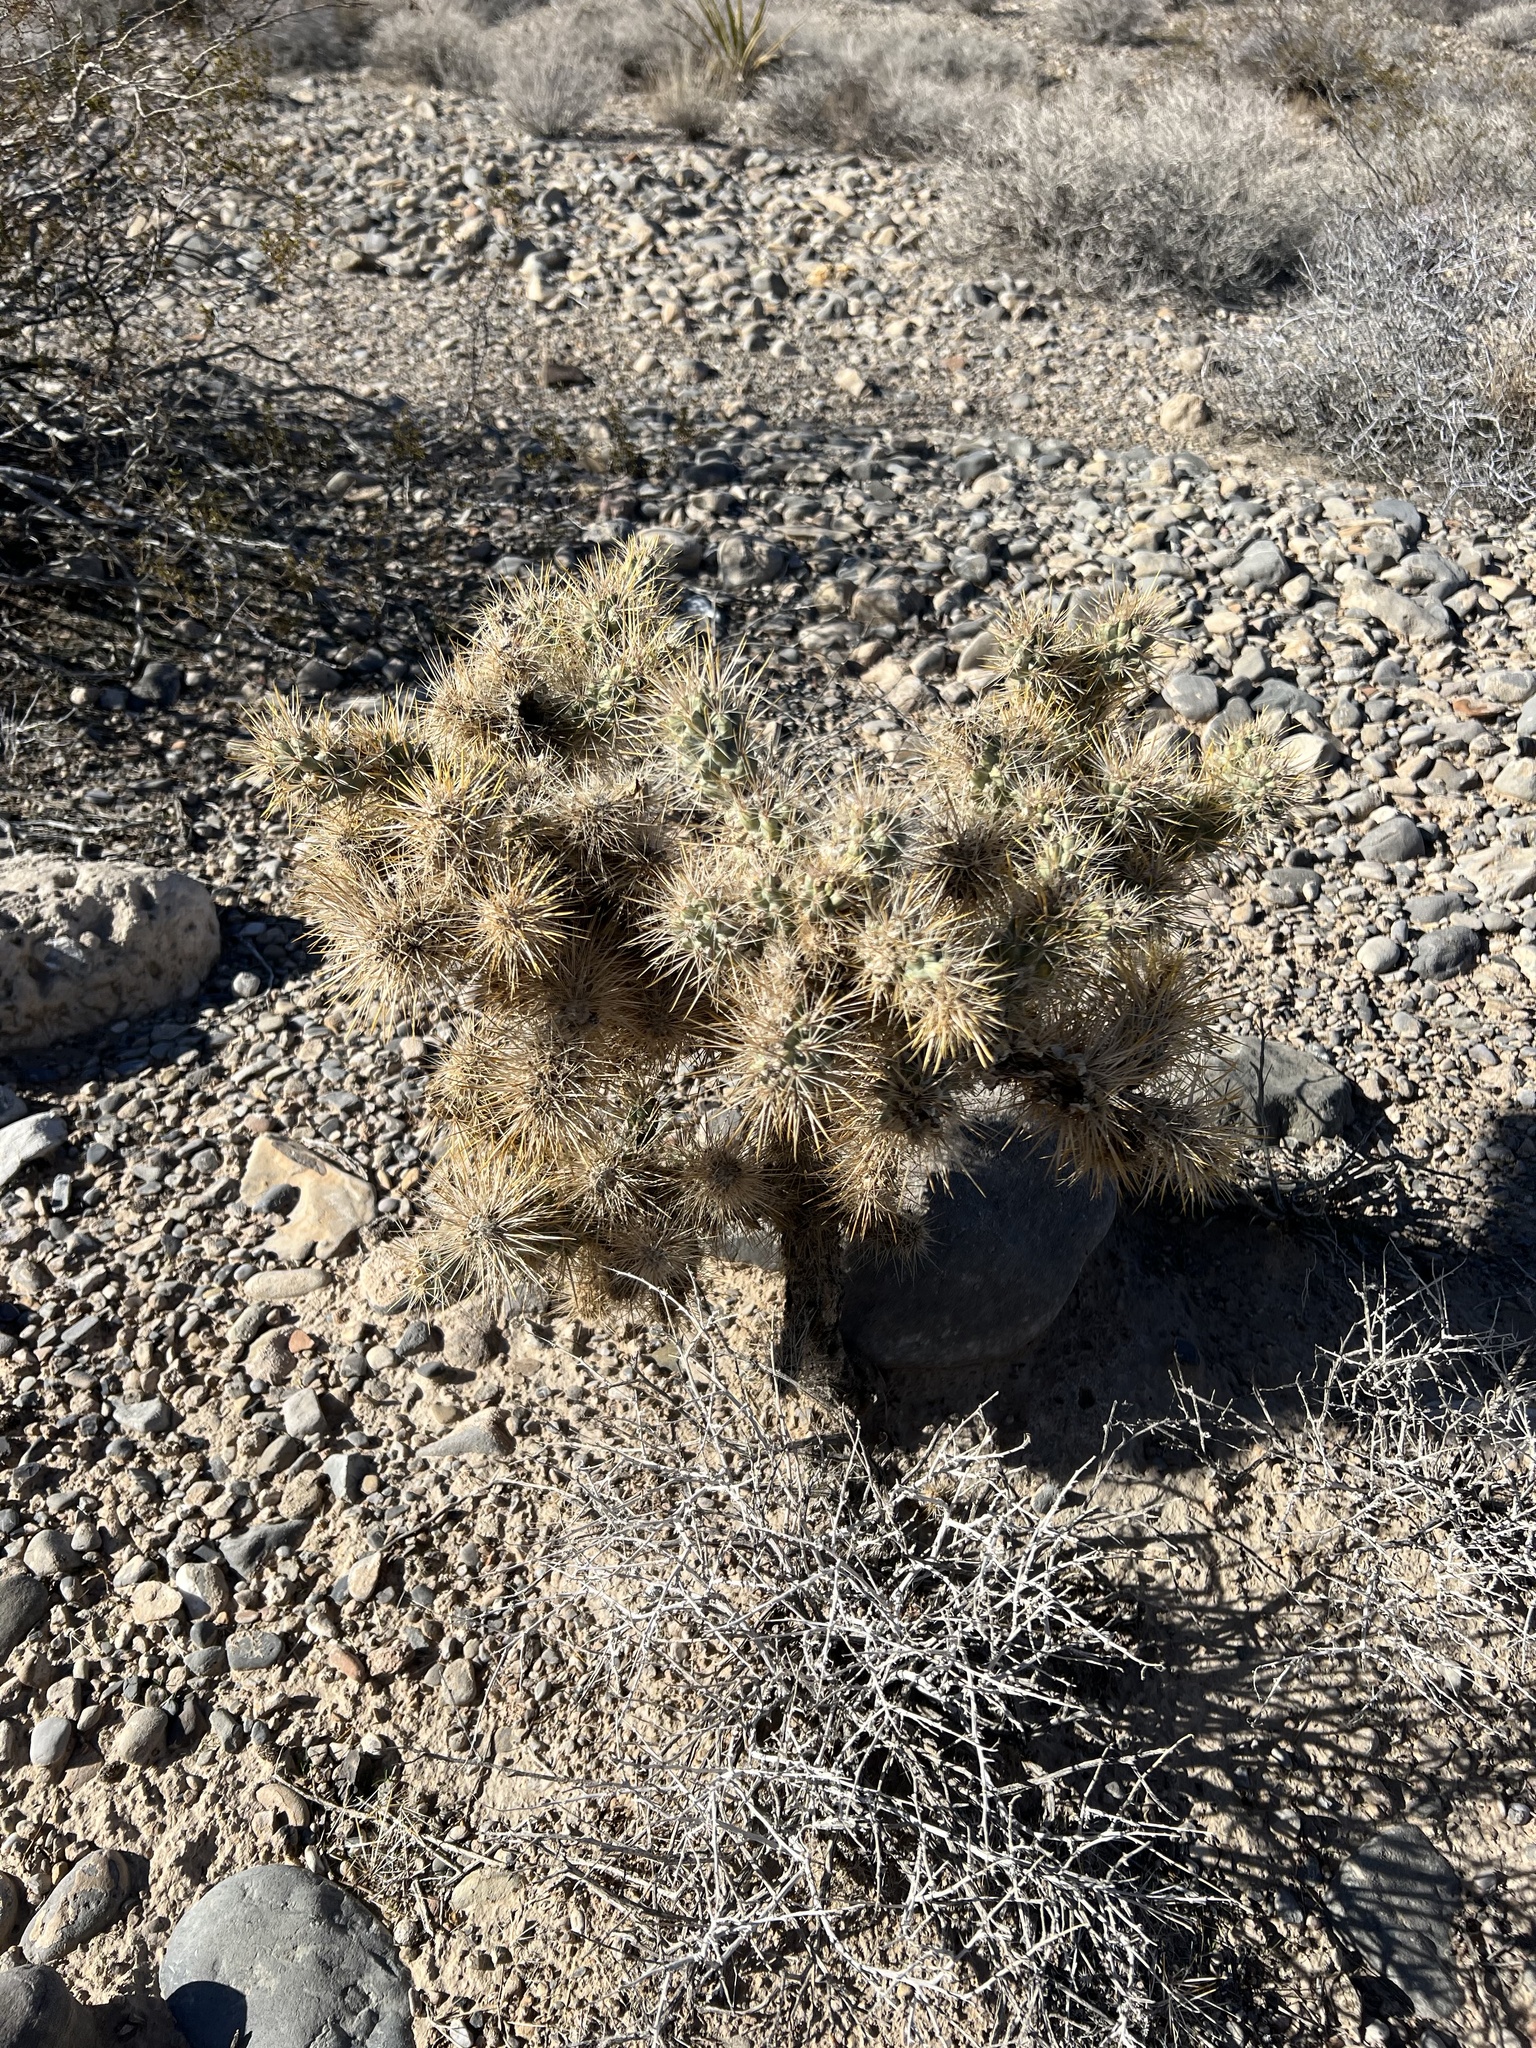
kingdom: Plantae
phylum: Tracheophyta
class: Magnoliopsida
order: Caryophyllales
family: Cactaceae
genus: Cylindropuntia
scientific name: Cylindropuntia echinocarpa
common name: Ground cholla
